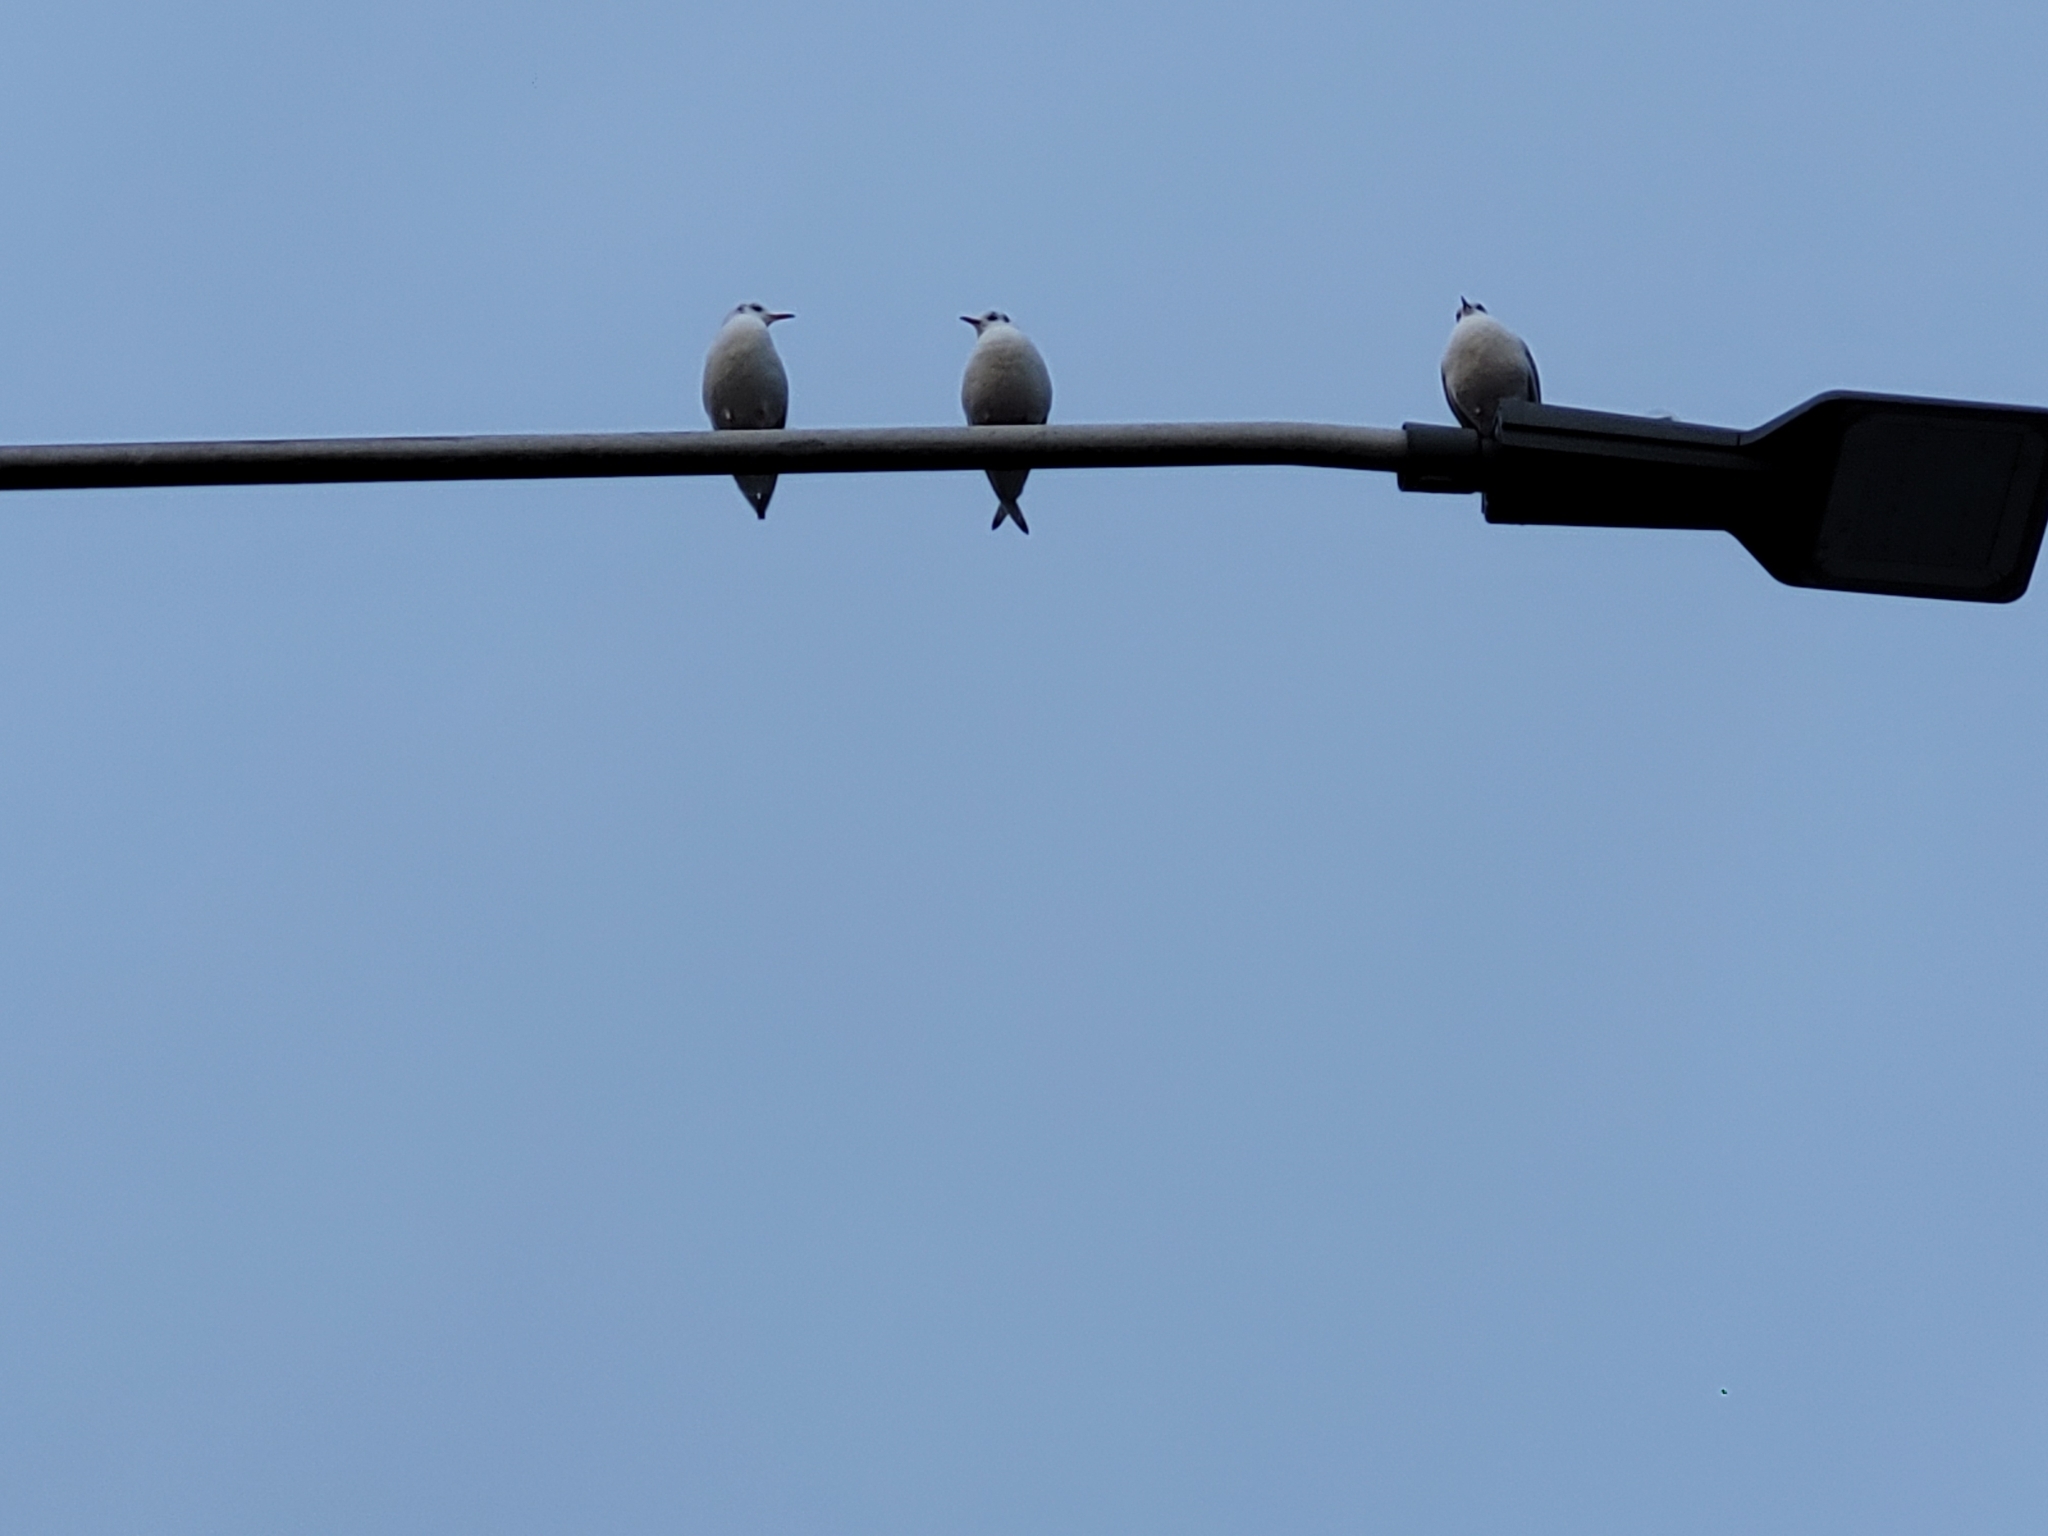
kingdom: Animalia
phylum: Chordata
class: Aves
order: Charadriiformes
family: Laridae
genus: Chroicocephalus
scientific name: Chroicocephalus ridibundus
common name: Black-headed gull
